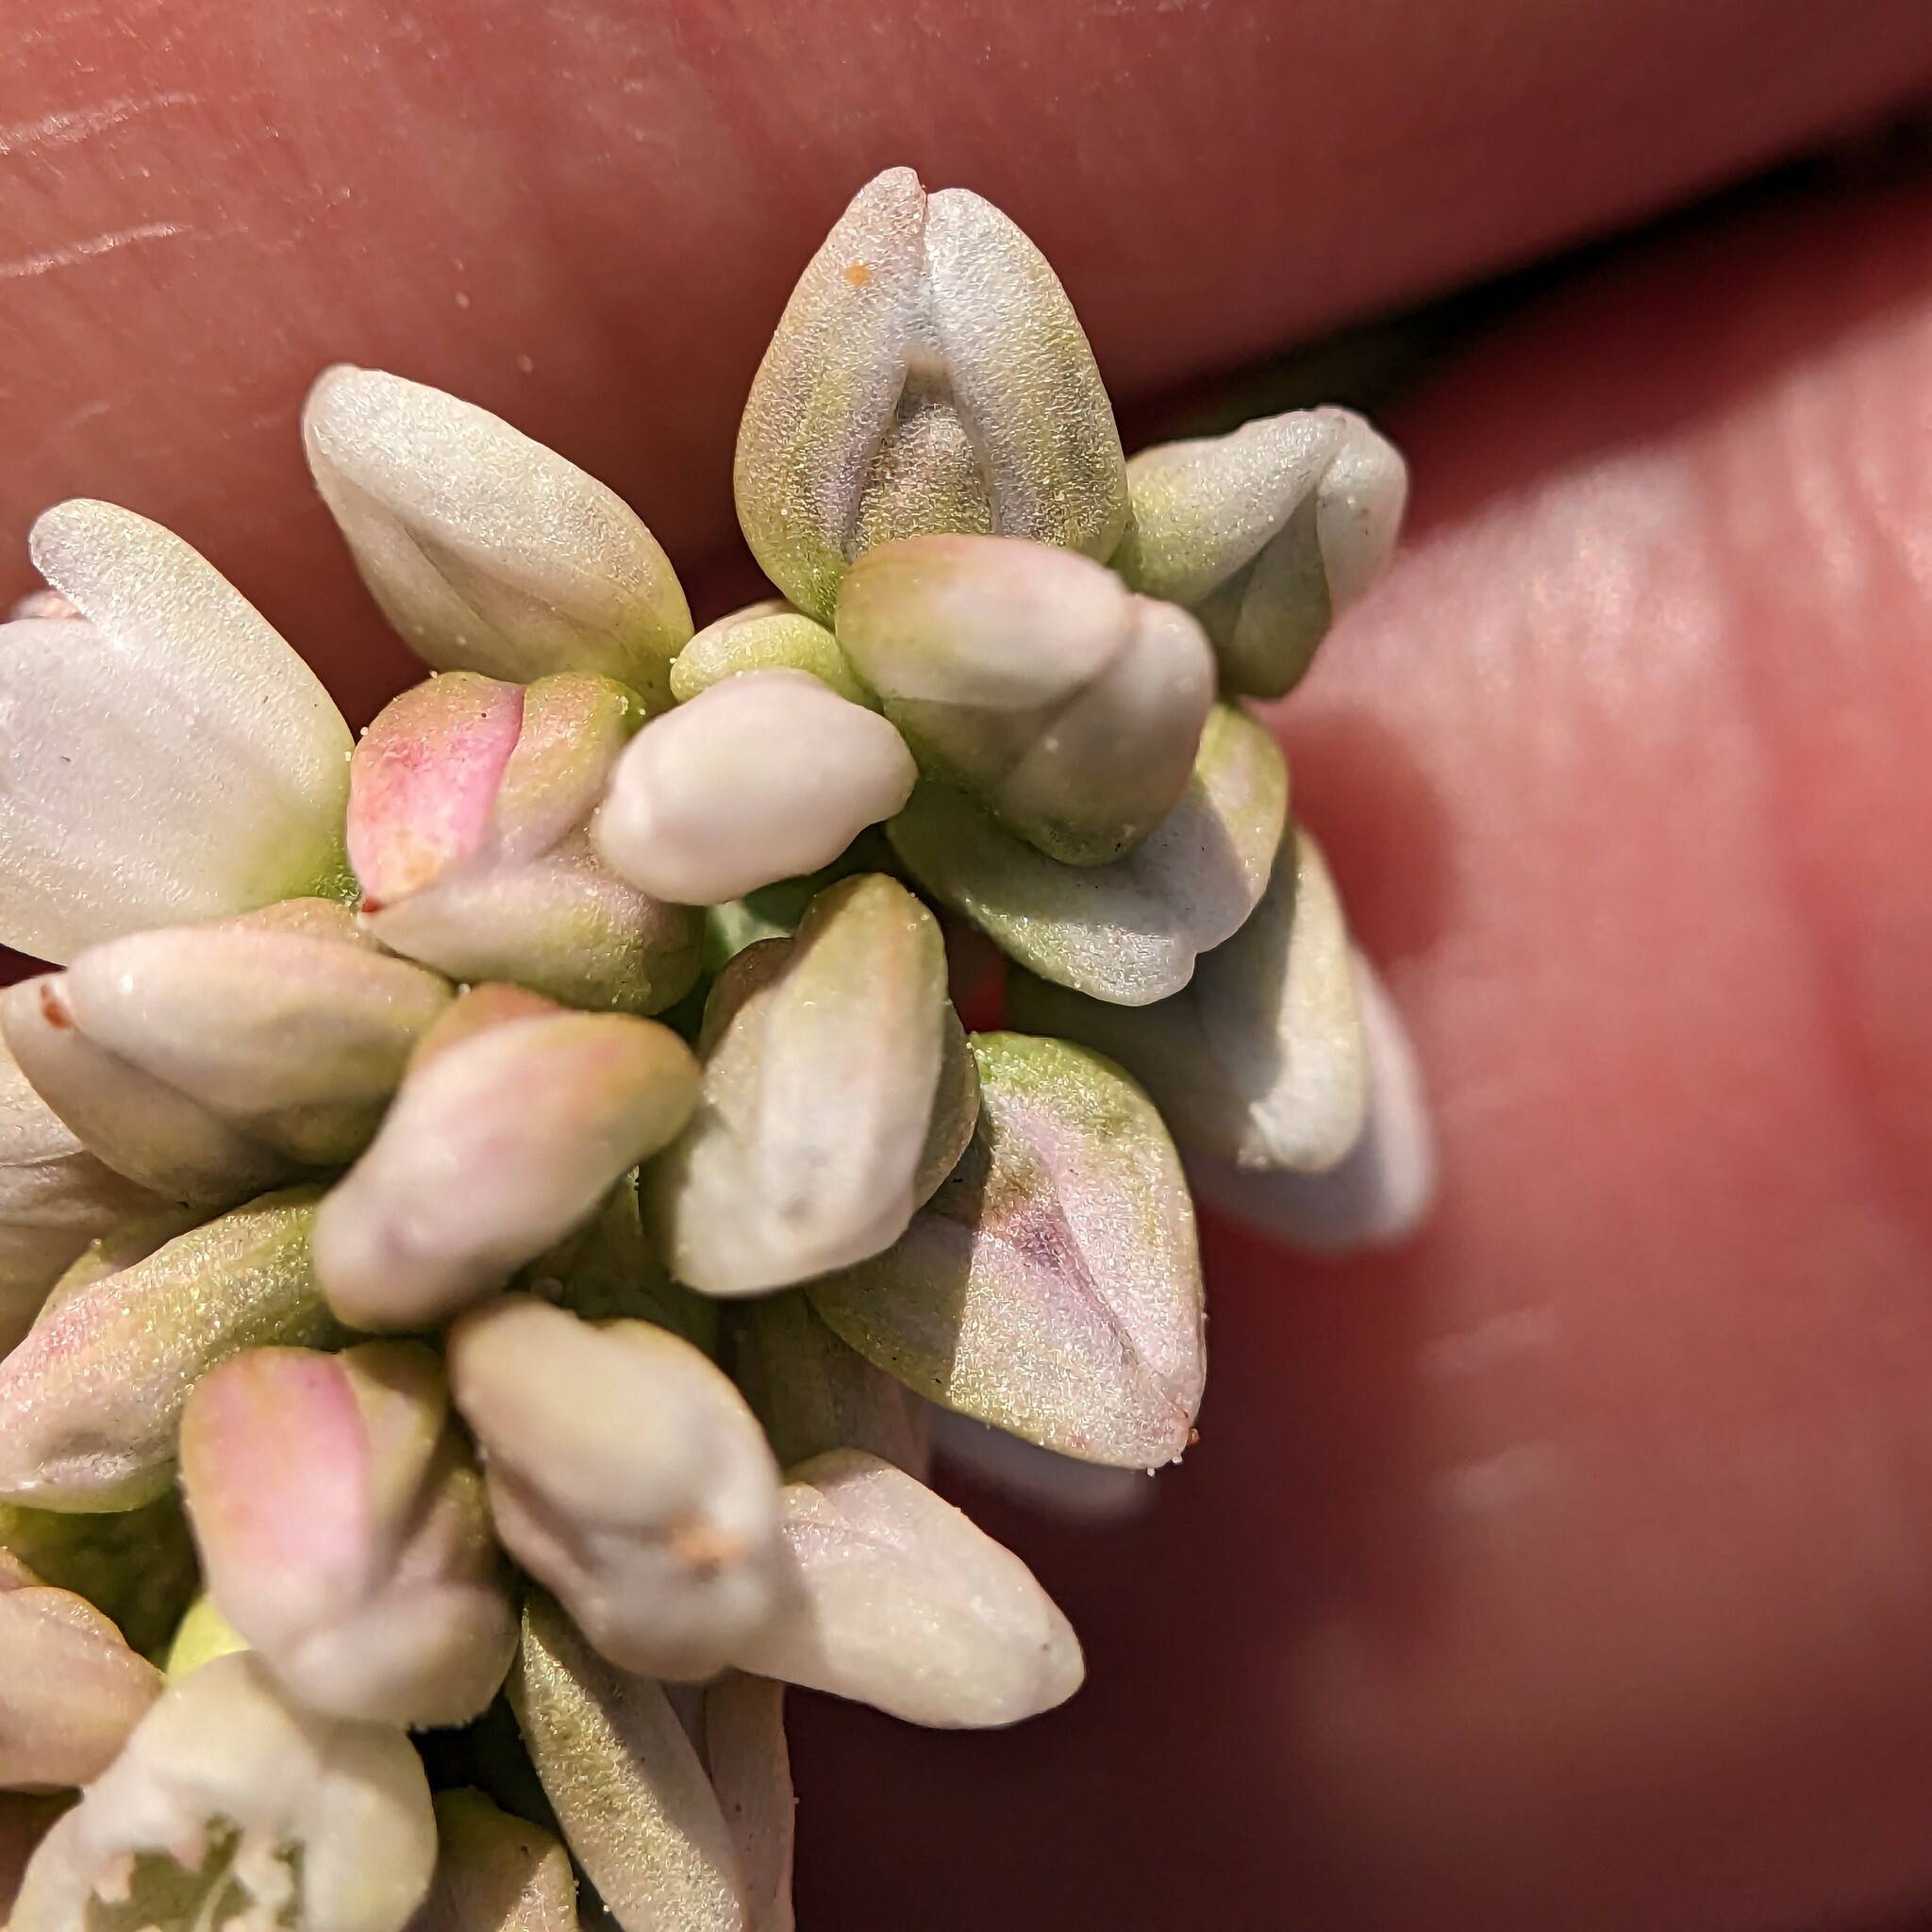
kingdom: Plantae
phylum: Tracheophyta
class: Magnoliopsida
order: Caryophyllales
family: Polygonaceae
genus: Persicaria
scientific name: Persicaria pensylvanica
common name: Pinkweed
